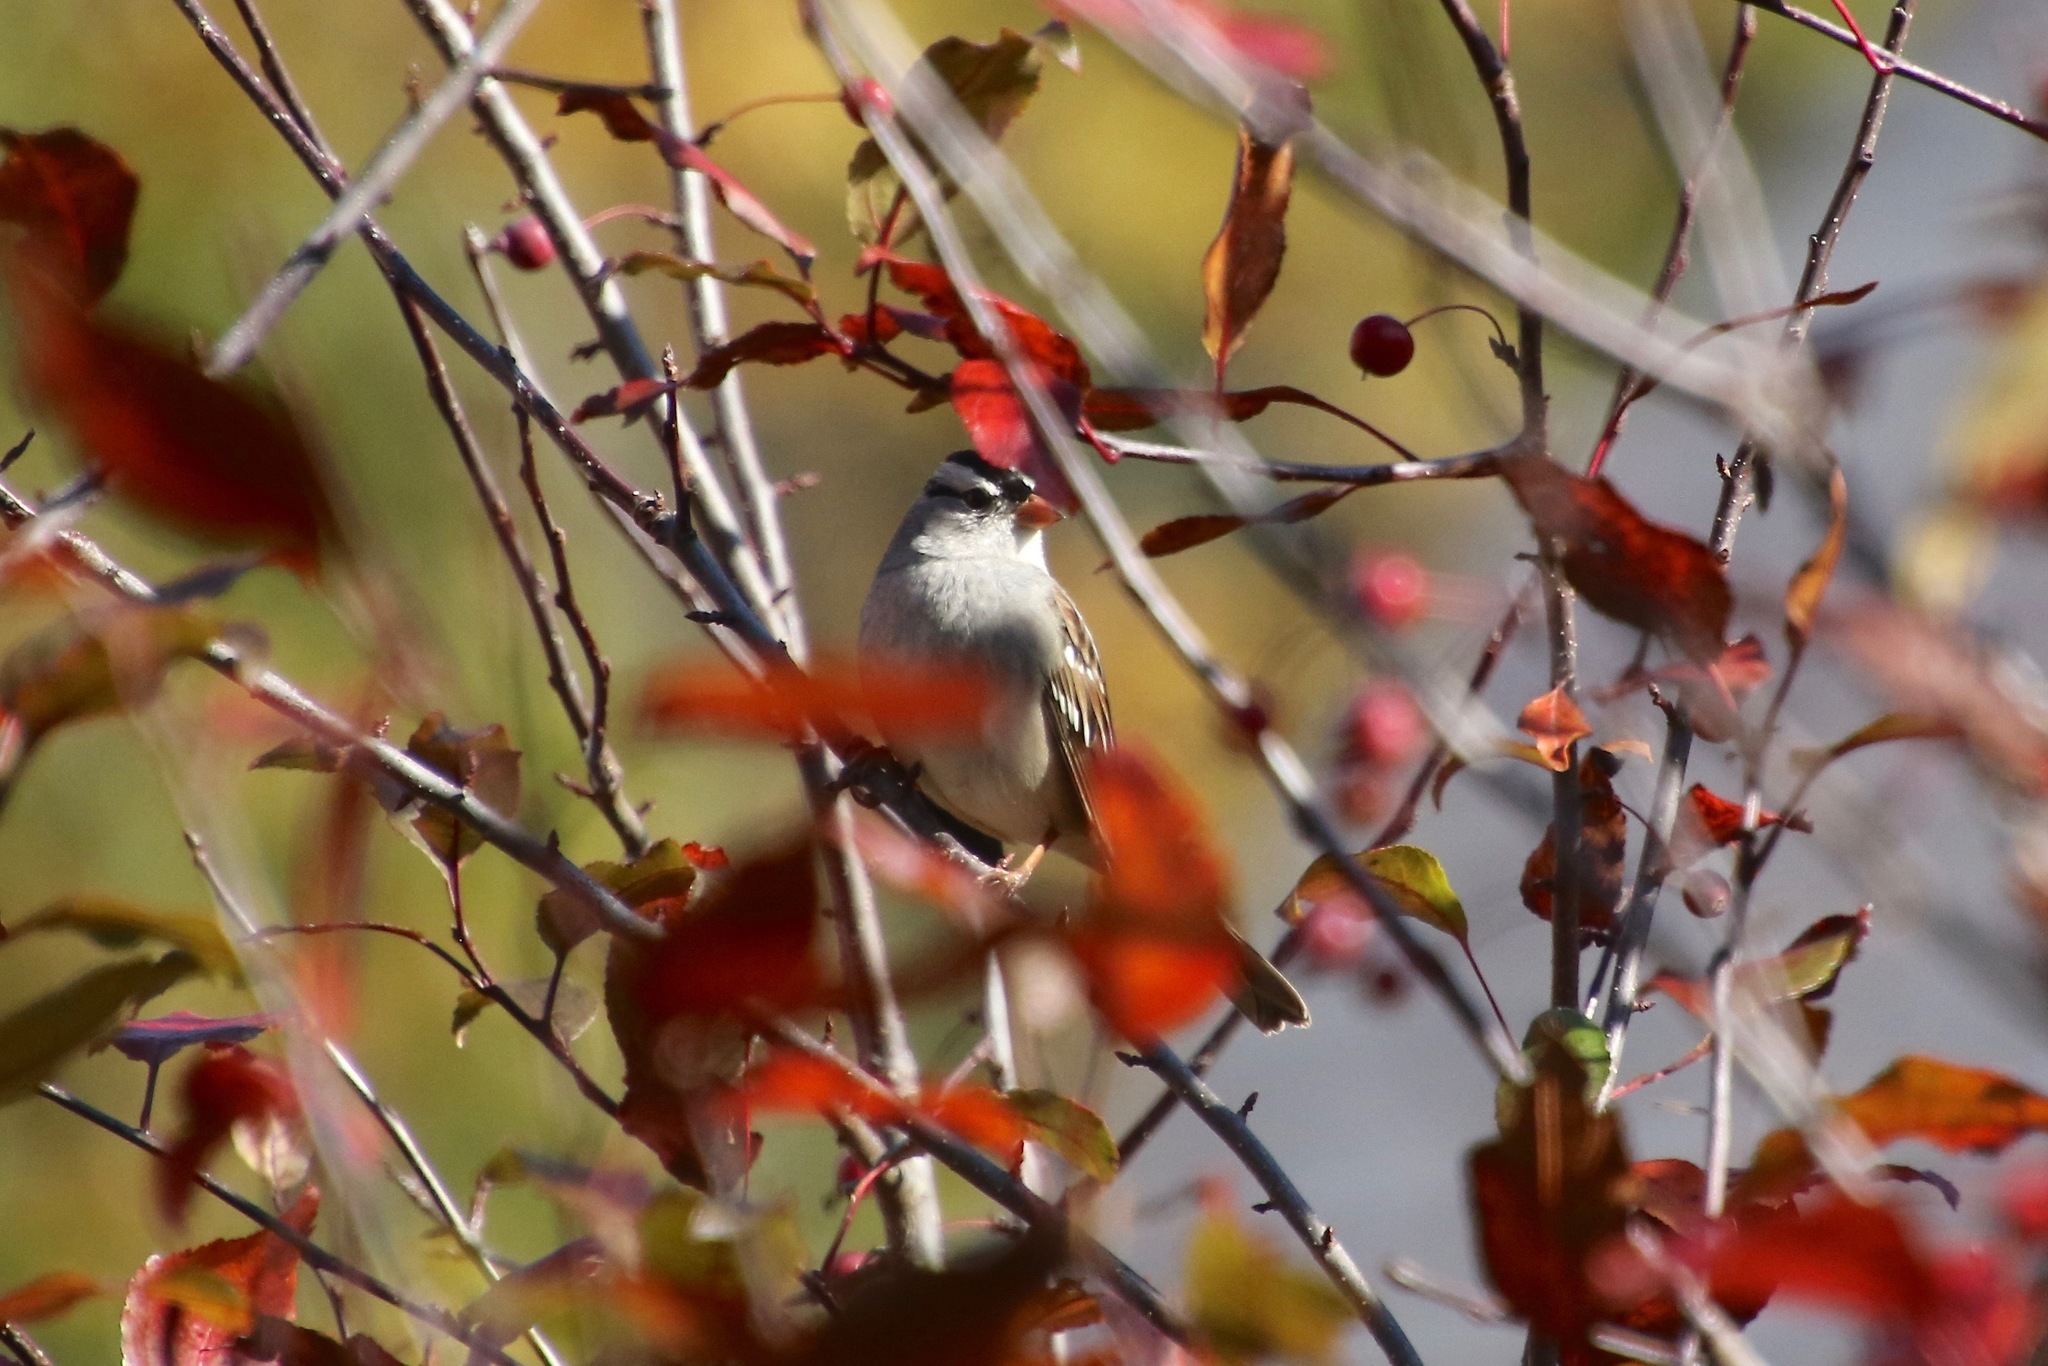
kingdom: Animalia
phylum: Chordata
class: Aves
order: Passeriformes
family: Passerellidae
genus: Zonotrichia
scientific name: Zonotrichia leucophrys
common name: White-crowned sparrow
